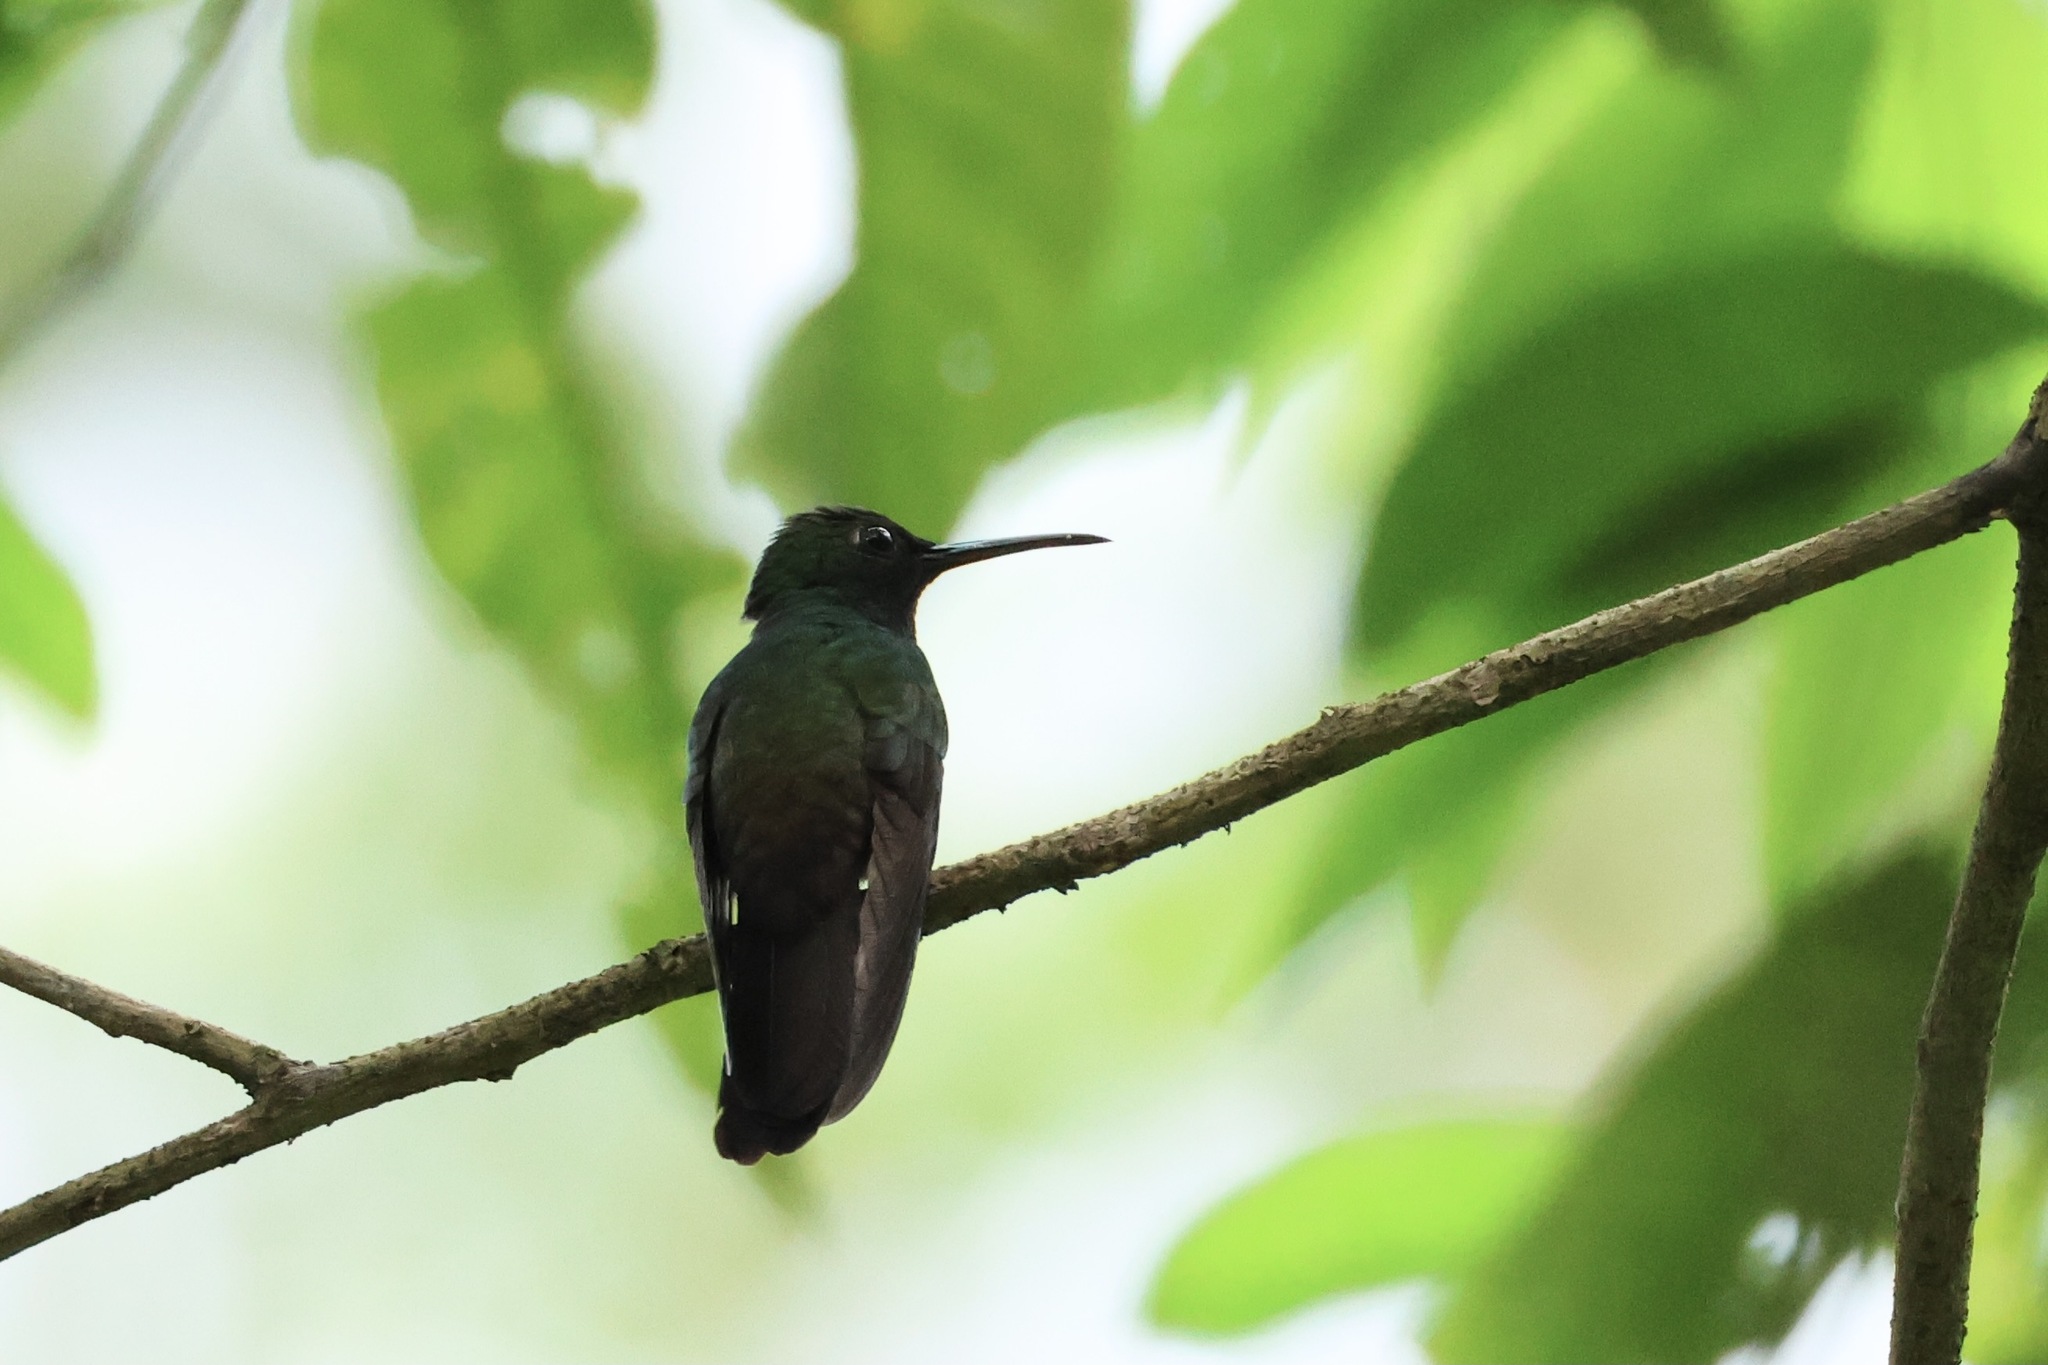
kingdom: Animalia
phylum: Chordata
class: Aves
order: Apodiformes
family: Trochilidae
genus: Chalybura
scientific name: Chalybura urochrysia
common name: Bronze-tailed plumeleteer
